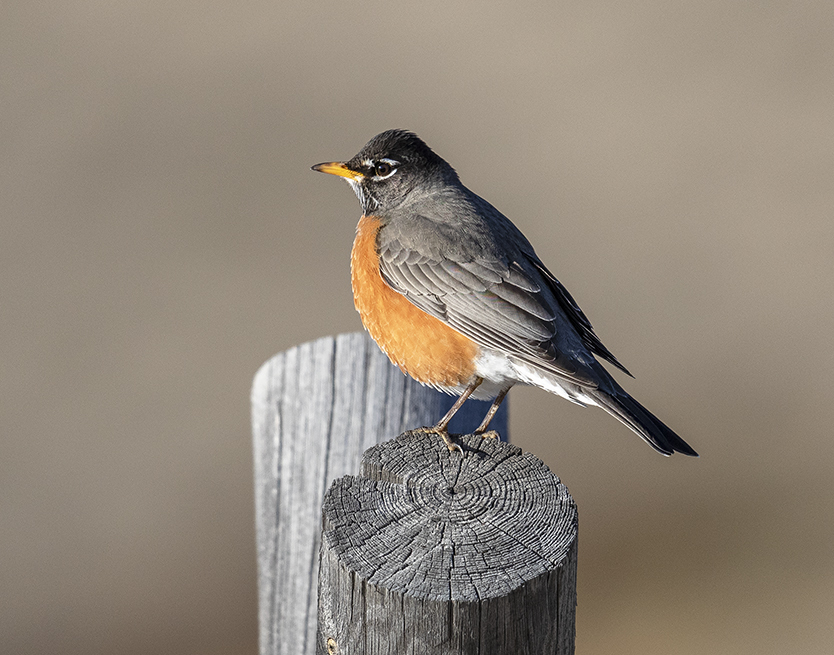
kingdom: Animalia
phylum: Chordata
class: Aves
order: Passeriformes
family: Turdidae
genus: Turdus
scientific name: Turdus migratorius
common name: American robin
